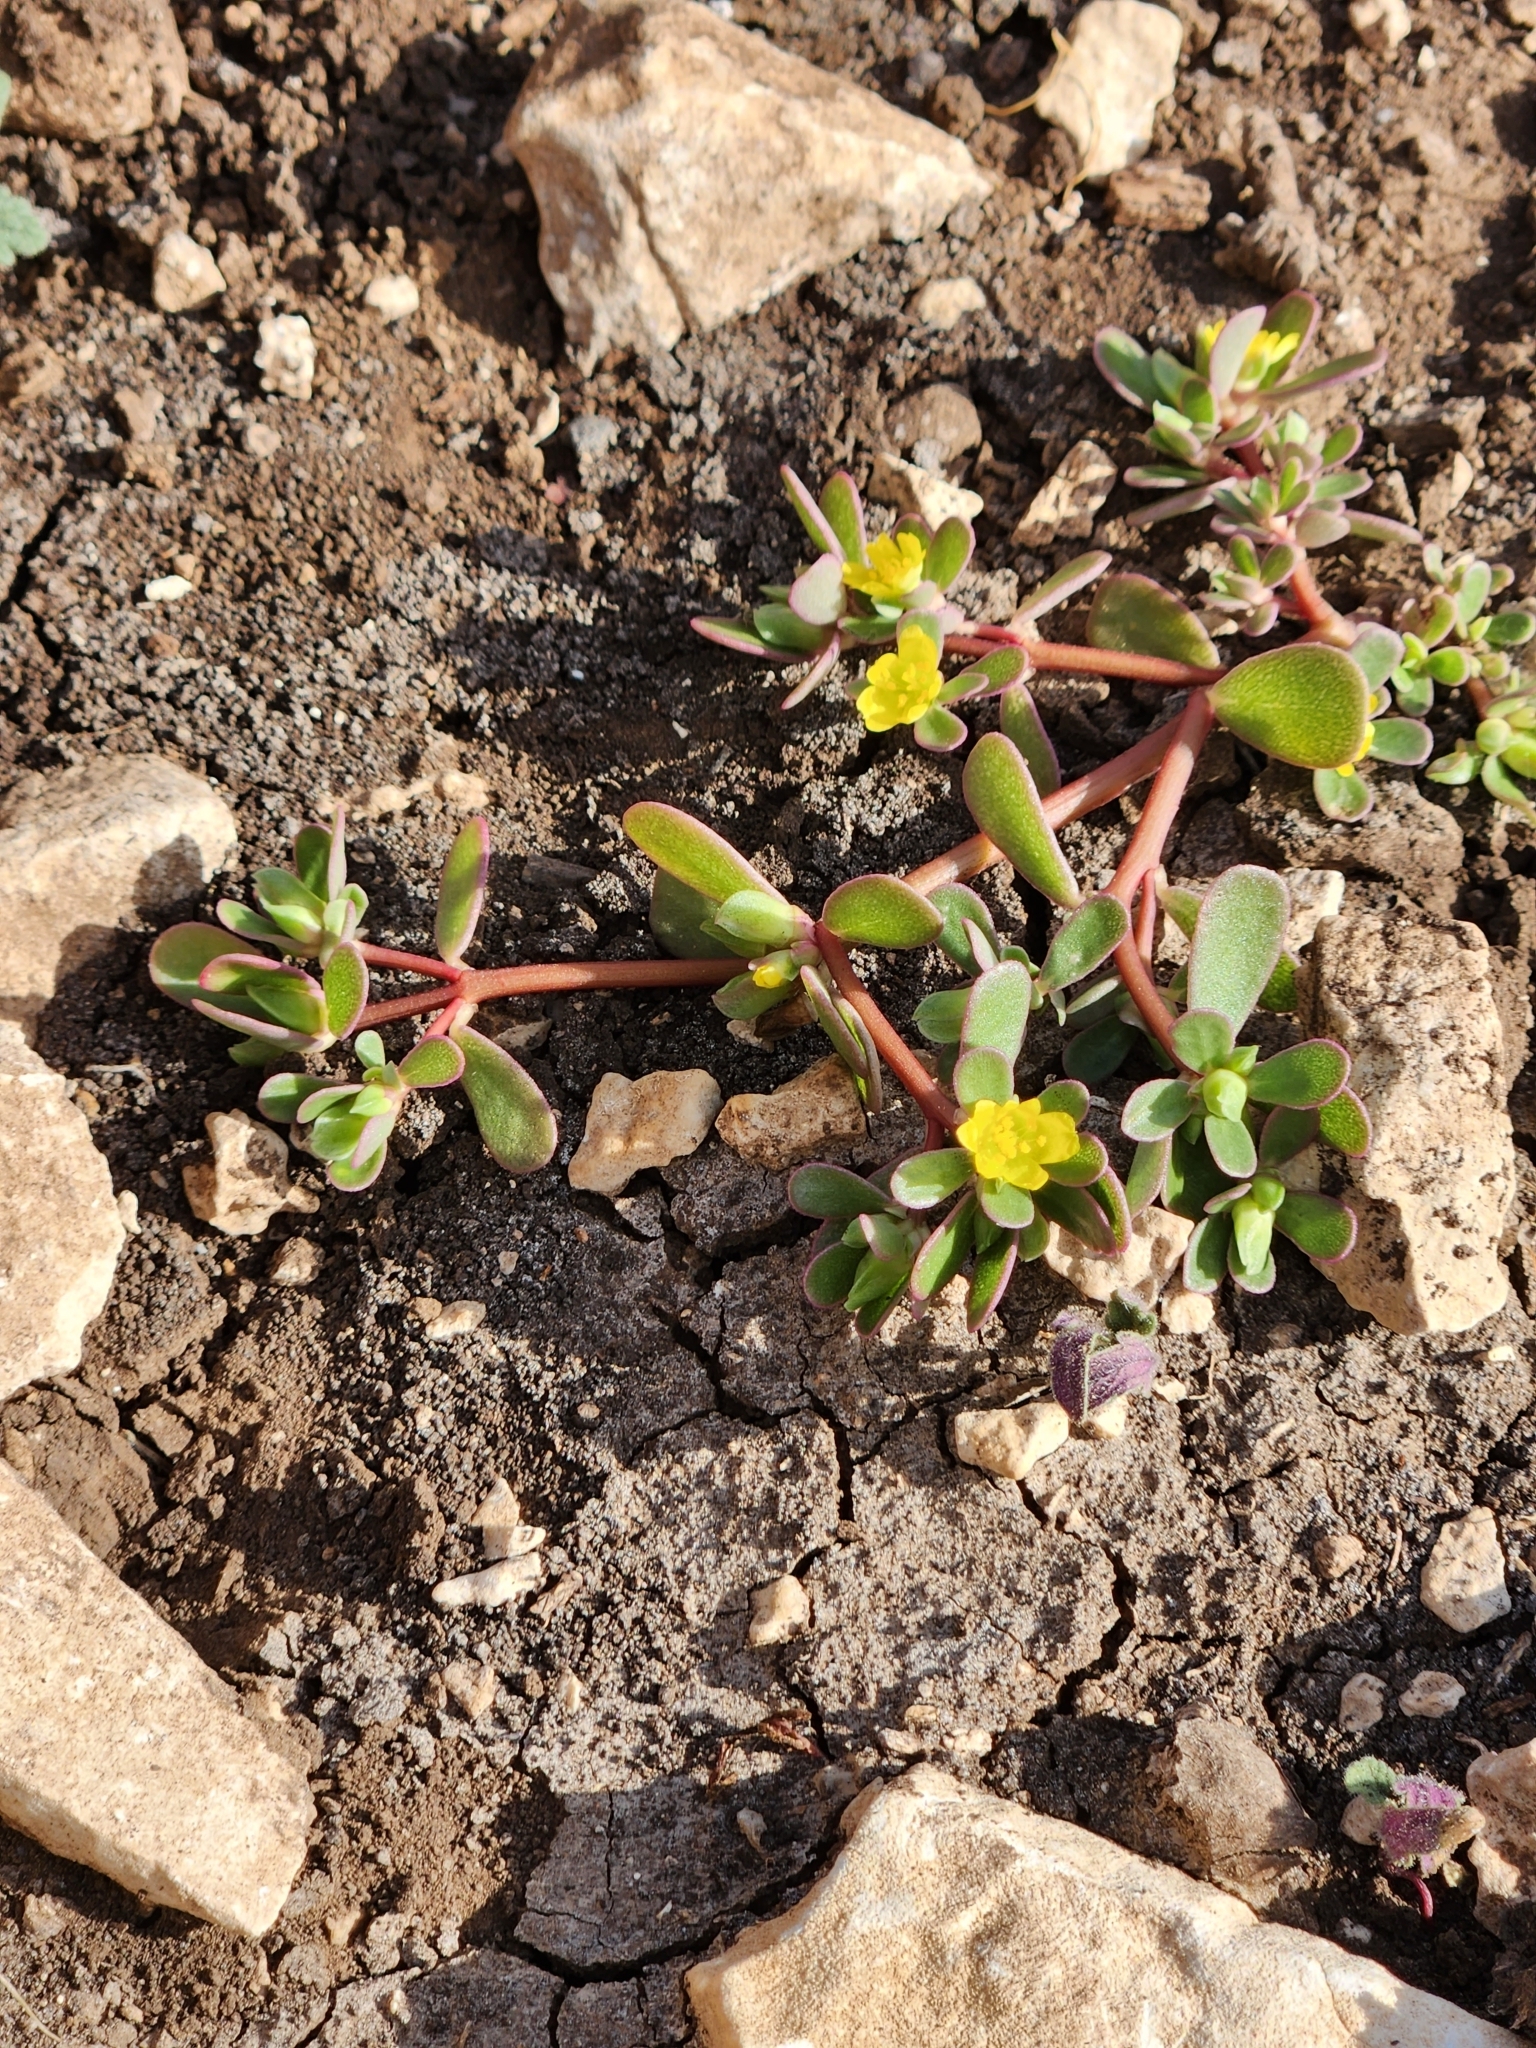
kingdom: Plantae
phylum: Tracheophyta
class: Magnoliopsida
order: Caryophyllales
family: Portulacaceae
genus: Portulaca
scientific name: Portulaca oleracea
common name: Common purslane
